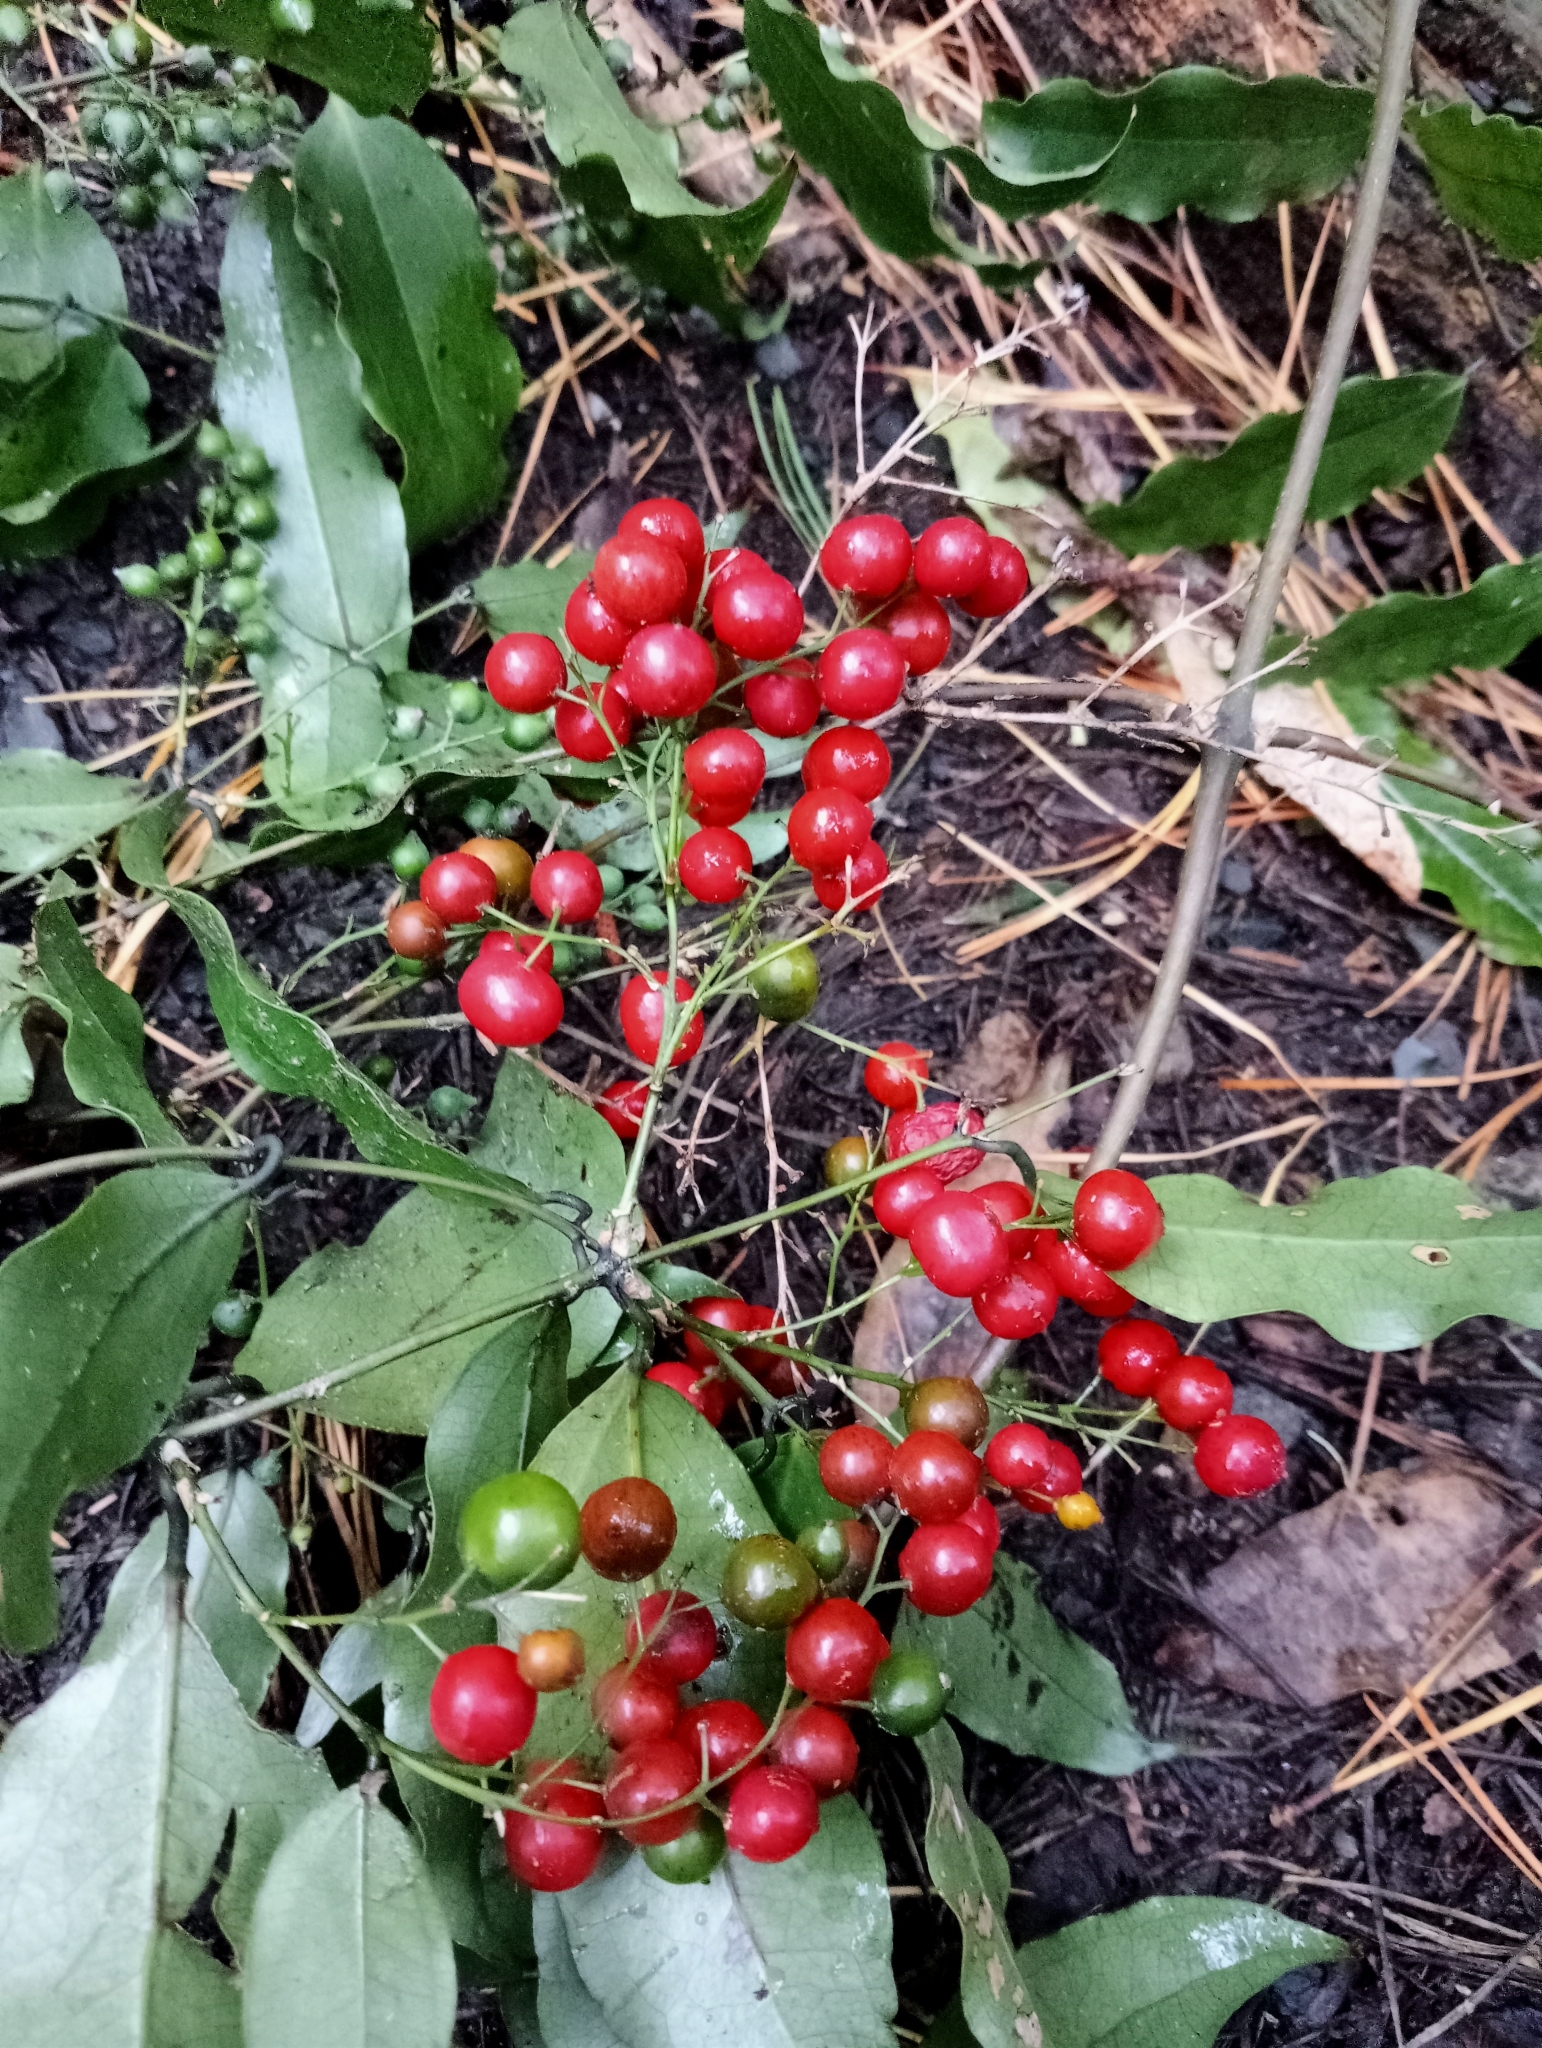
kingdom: Plantae
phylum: Tracheophyta
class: Liliopsida
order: Liliales
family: Ripogonaceae
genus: Ripogonum
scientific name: Ripogonum scandens
